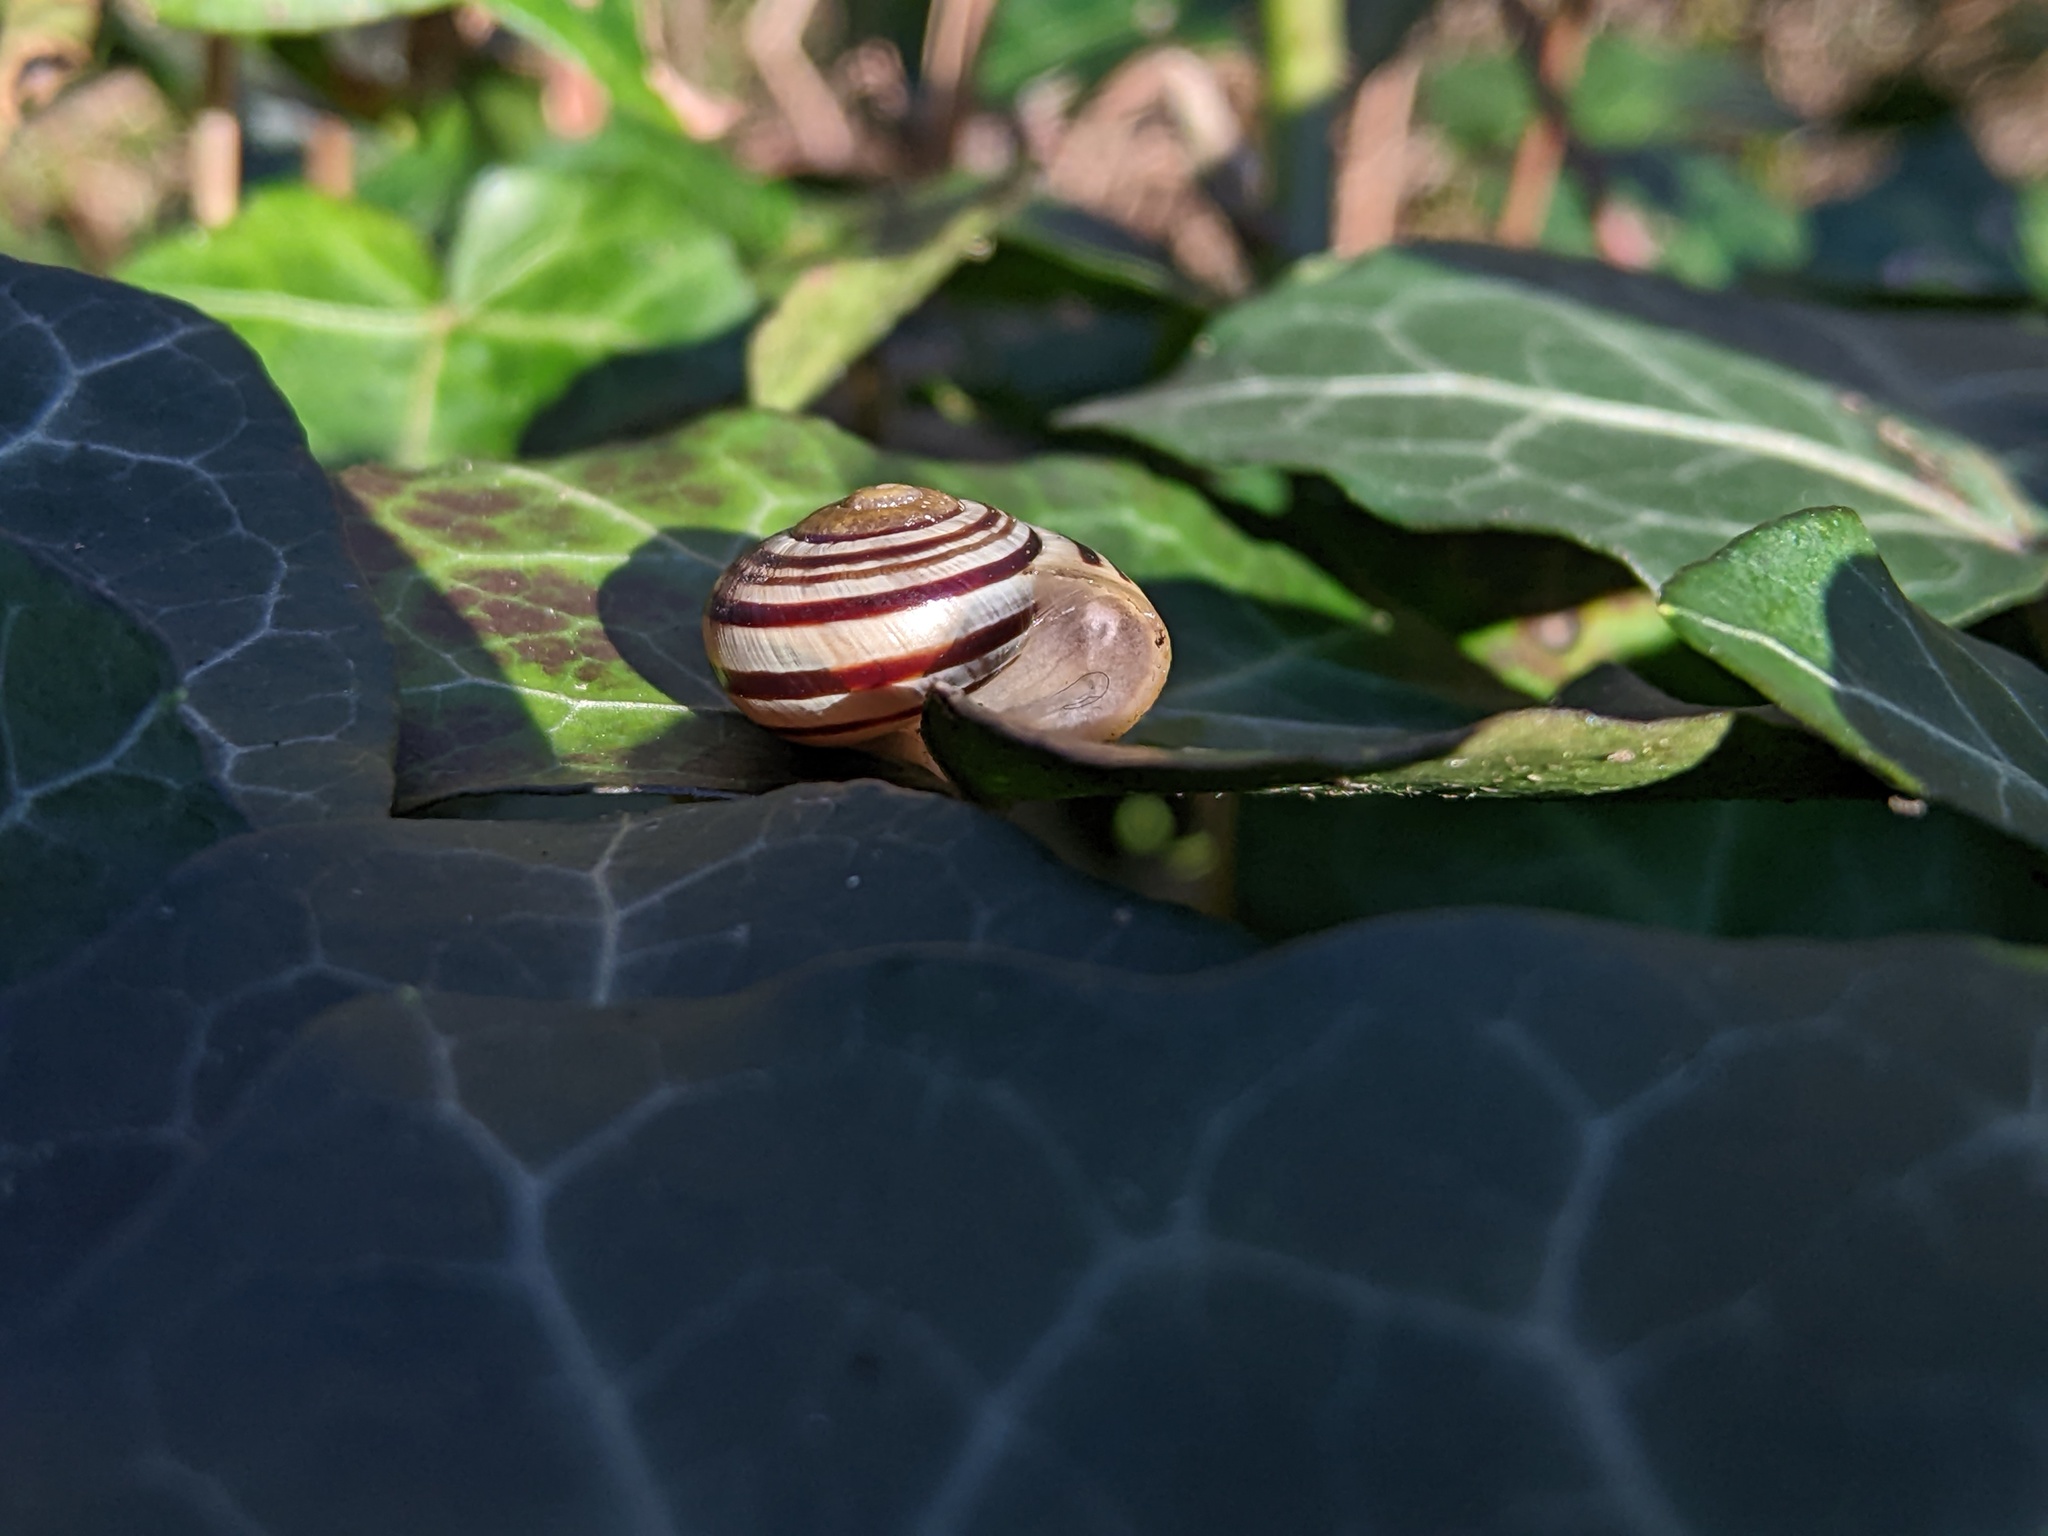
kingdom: Animalia
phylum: Mollusca
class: Gastropoda
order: Stylommatophora
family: Helicidae
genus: Cepaea
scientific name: Cepaea
